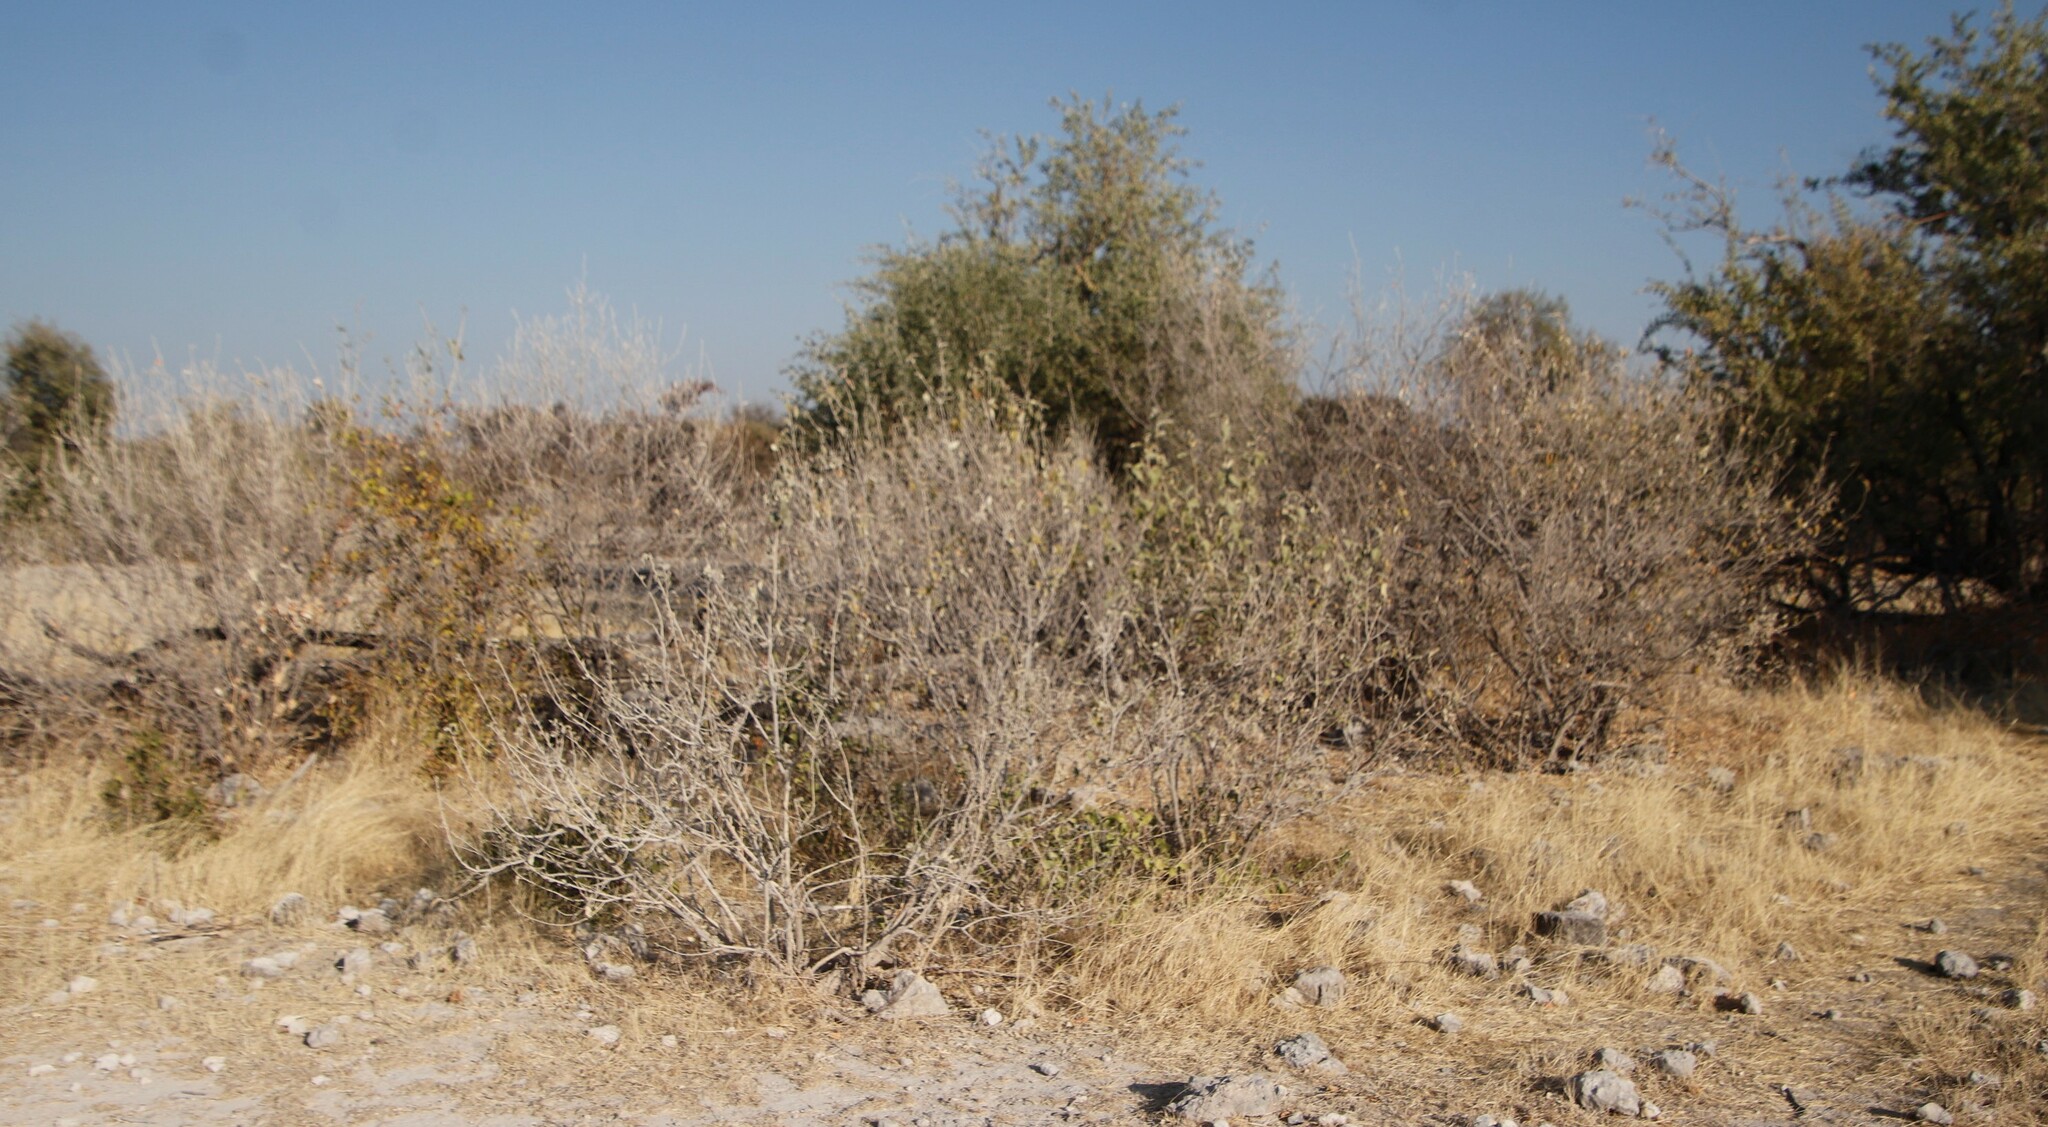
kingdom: Plantae
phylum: Tracheophyta
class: Magnoliopsida
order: Asterales
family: Asteraceae
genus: Pechuel-loeschea
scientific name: Pechuel-loeschea leubnitziae
